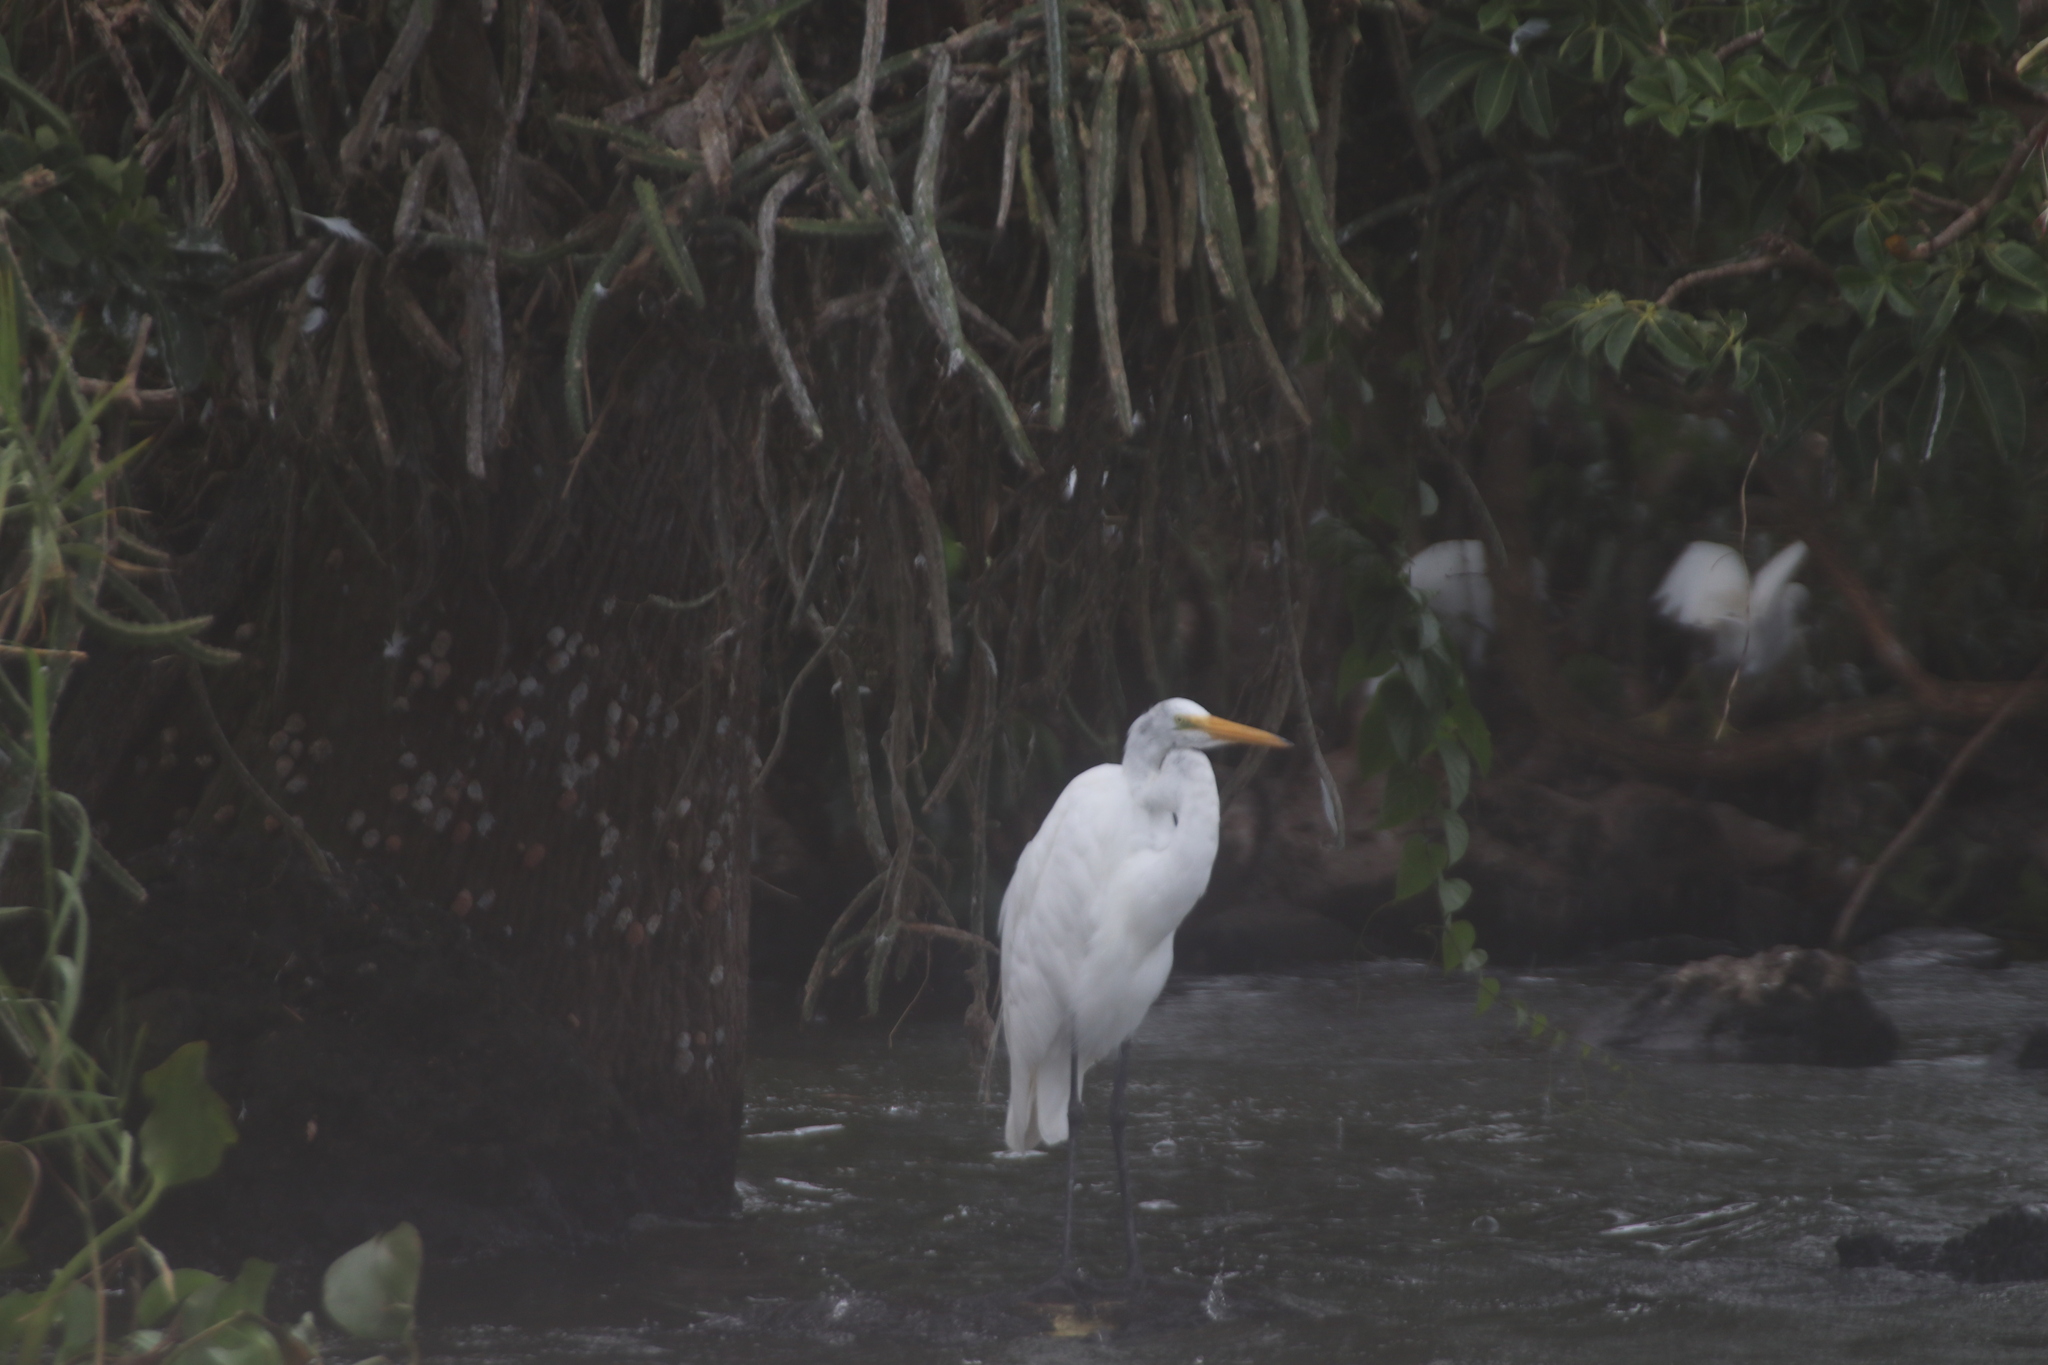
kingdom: Animalia
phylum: Chordata
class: Aves
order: Pelecaniformes
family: Ardeidae
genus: Ardea
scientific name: Ardea alba
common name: Great egret
